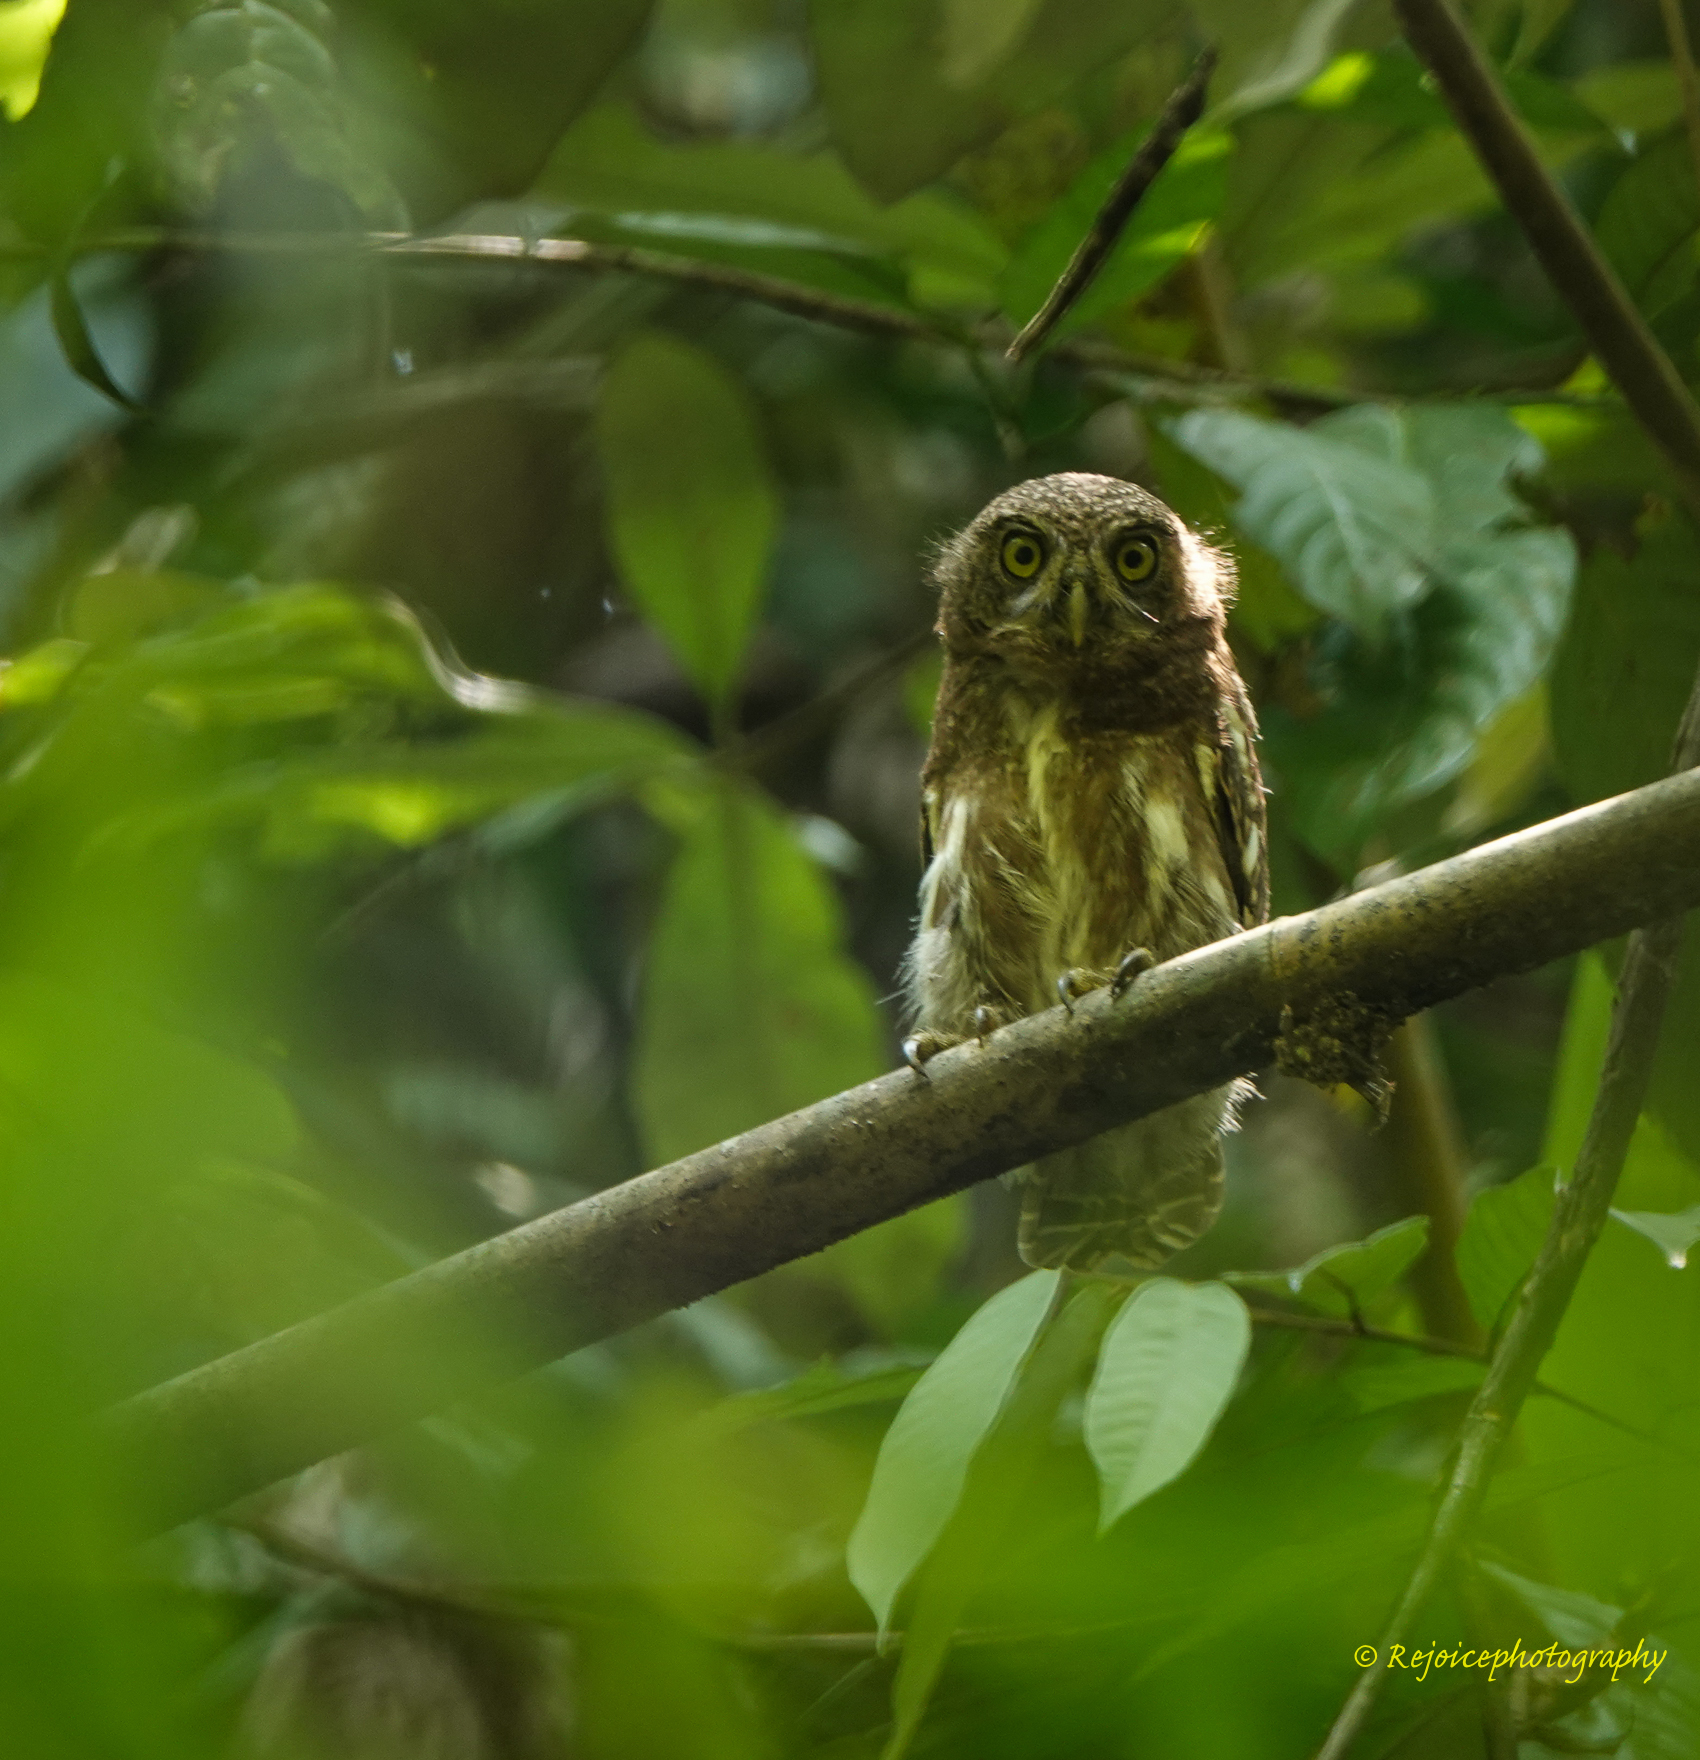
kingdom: Animalia
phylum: Chordata
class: Aves
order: Strigiformes
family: Strigidae
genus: Glaucidium
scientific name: Glaucidium cuculoides
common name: Asian barred owlet
